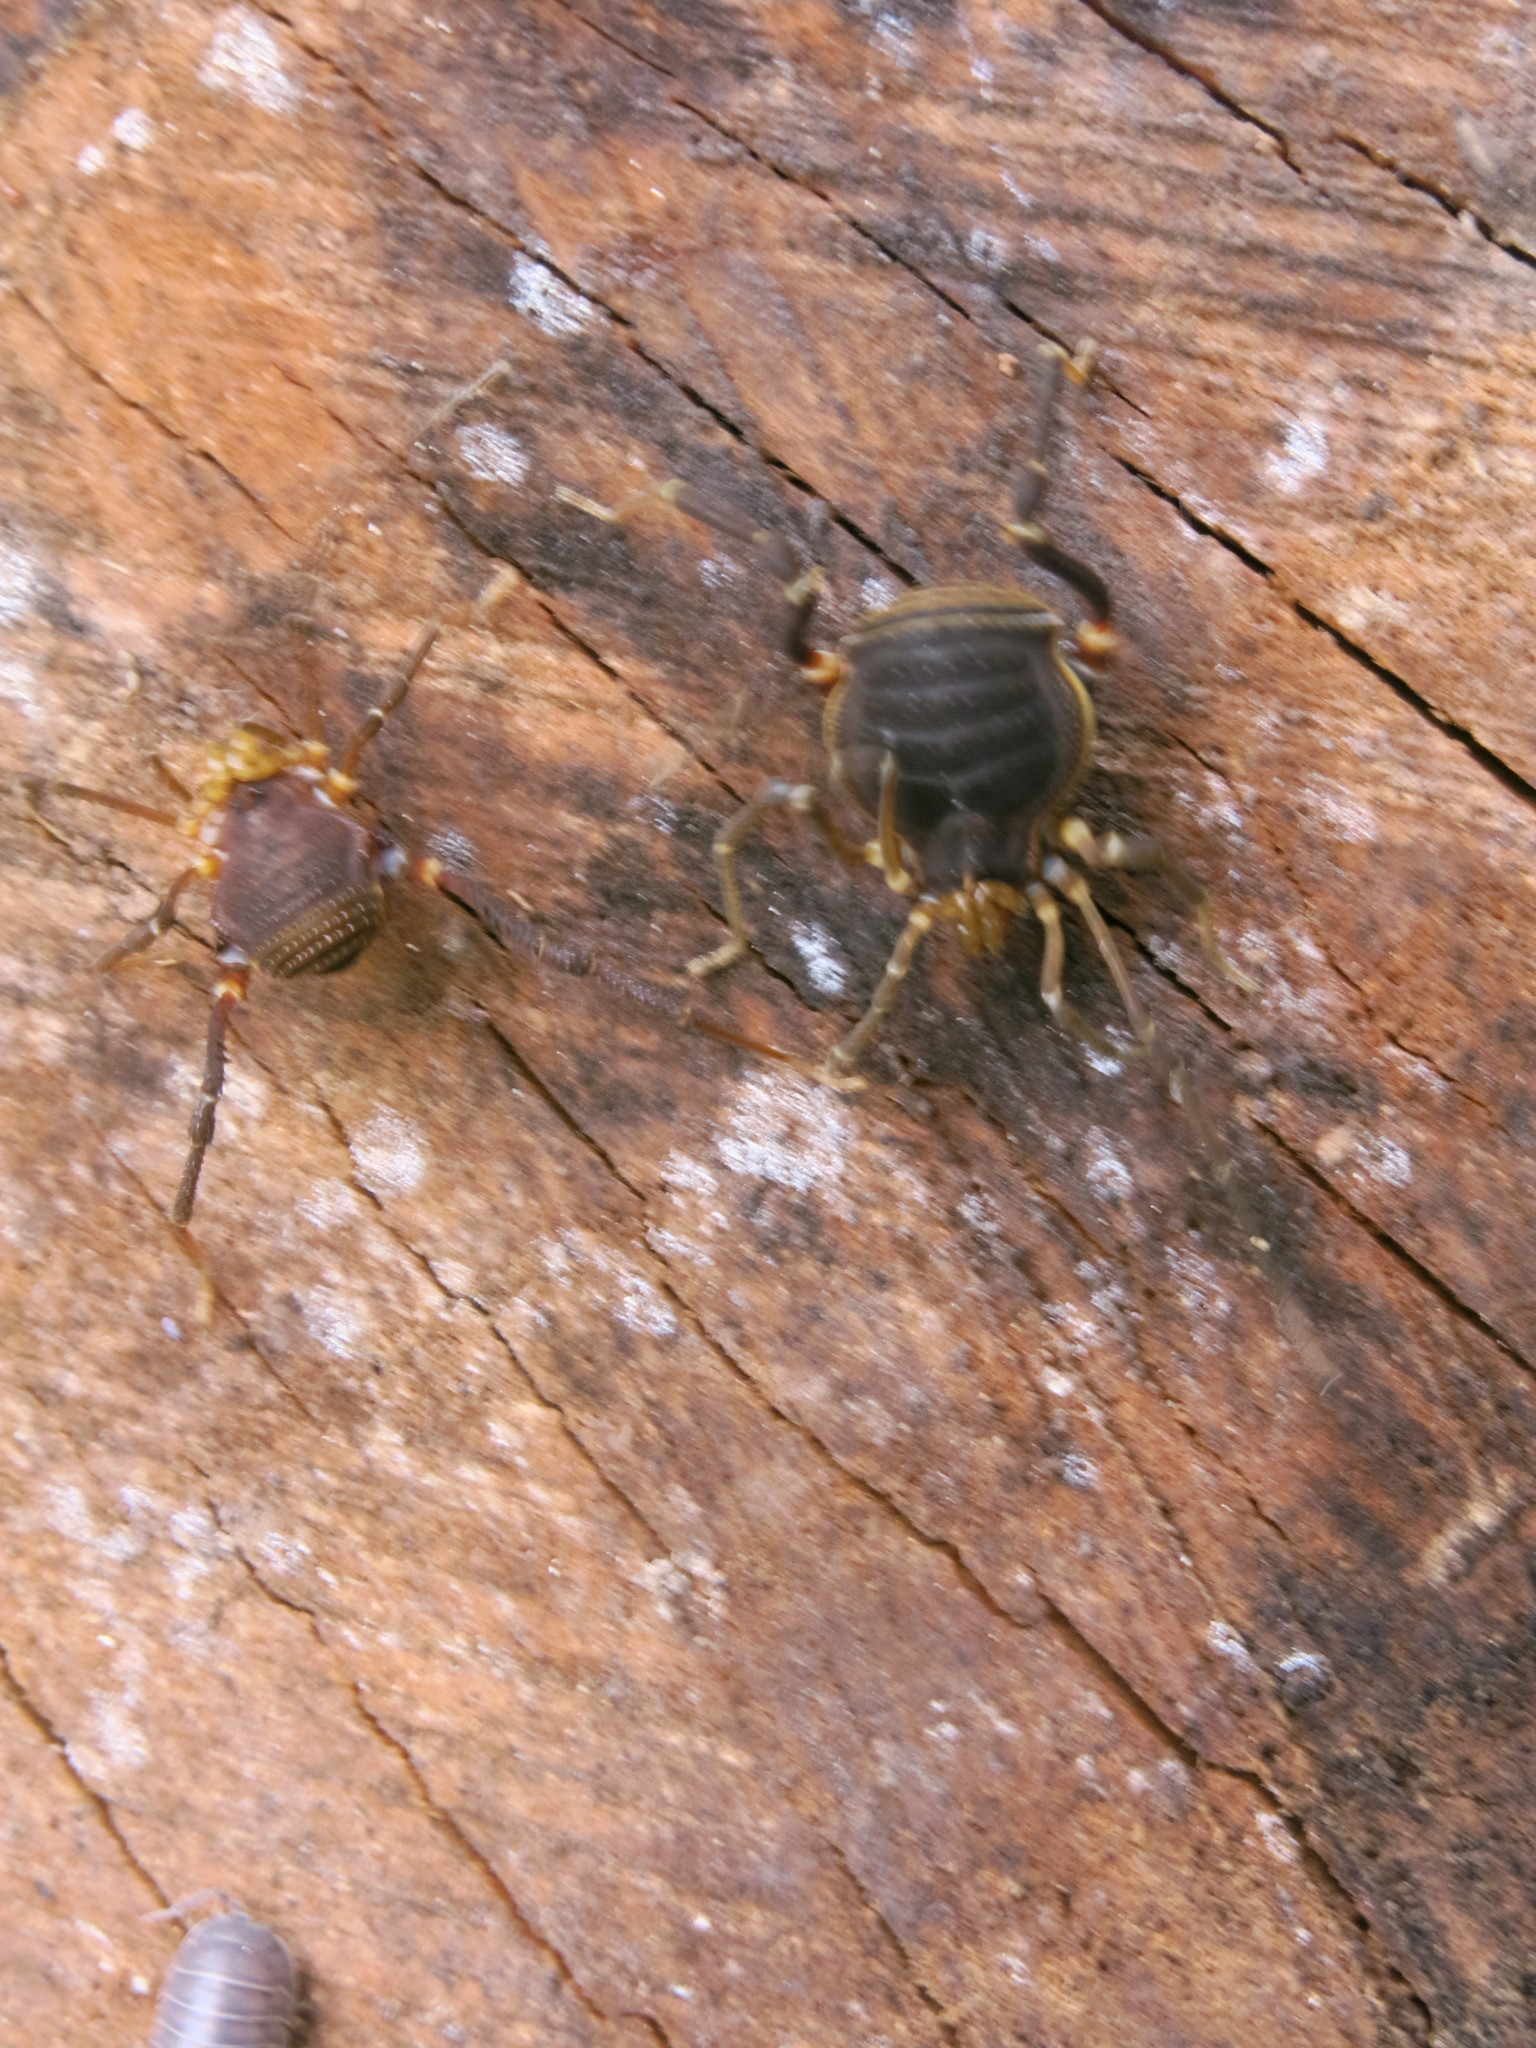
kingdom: Animalia
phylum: Arthropoda
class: Arachnida
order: Opiliones
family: Gonyleptidae
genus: Acanthopachylus
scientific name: Acanthopachylus robustus
